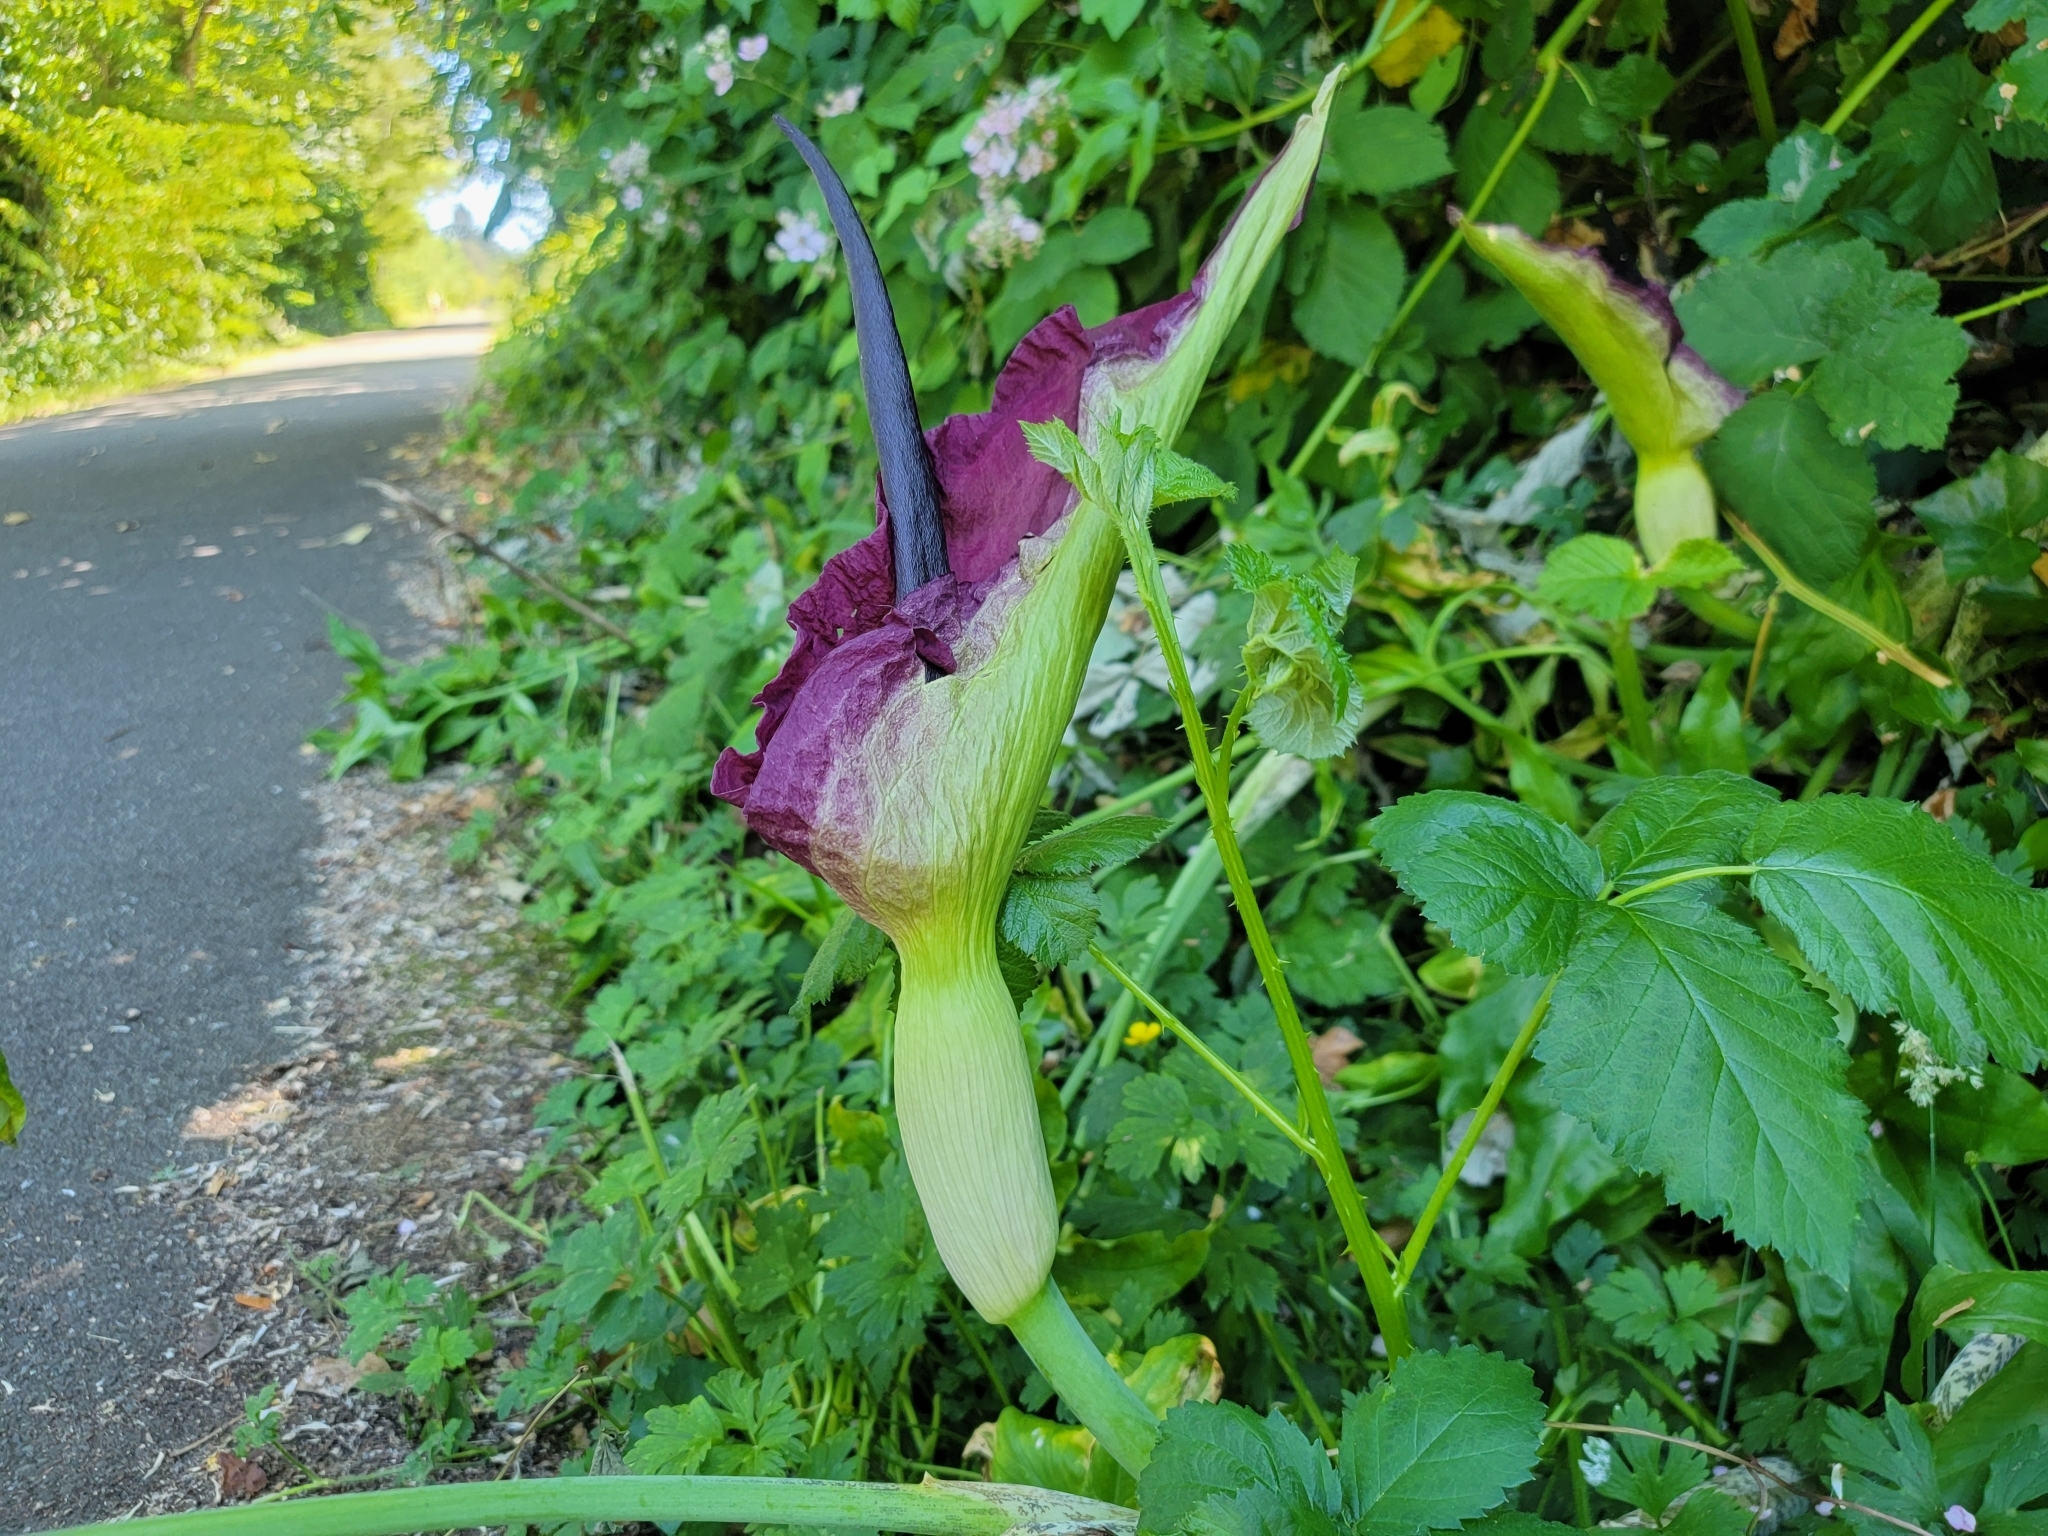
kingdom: Plantae
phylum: Tracheophyta
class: Liliopsida
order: Alismatales
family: Araceae
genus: Dracunculus
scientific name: Dracunculus vulgaris
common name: Dragon arum
